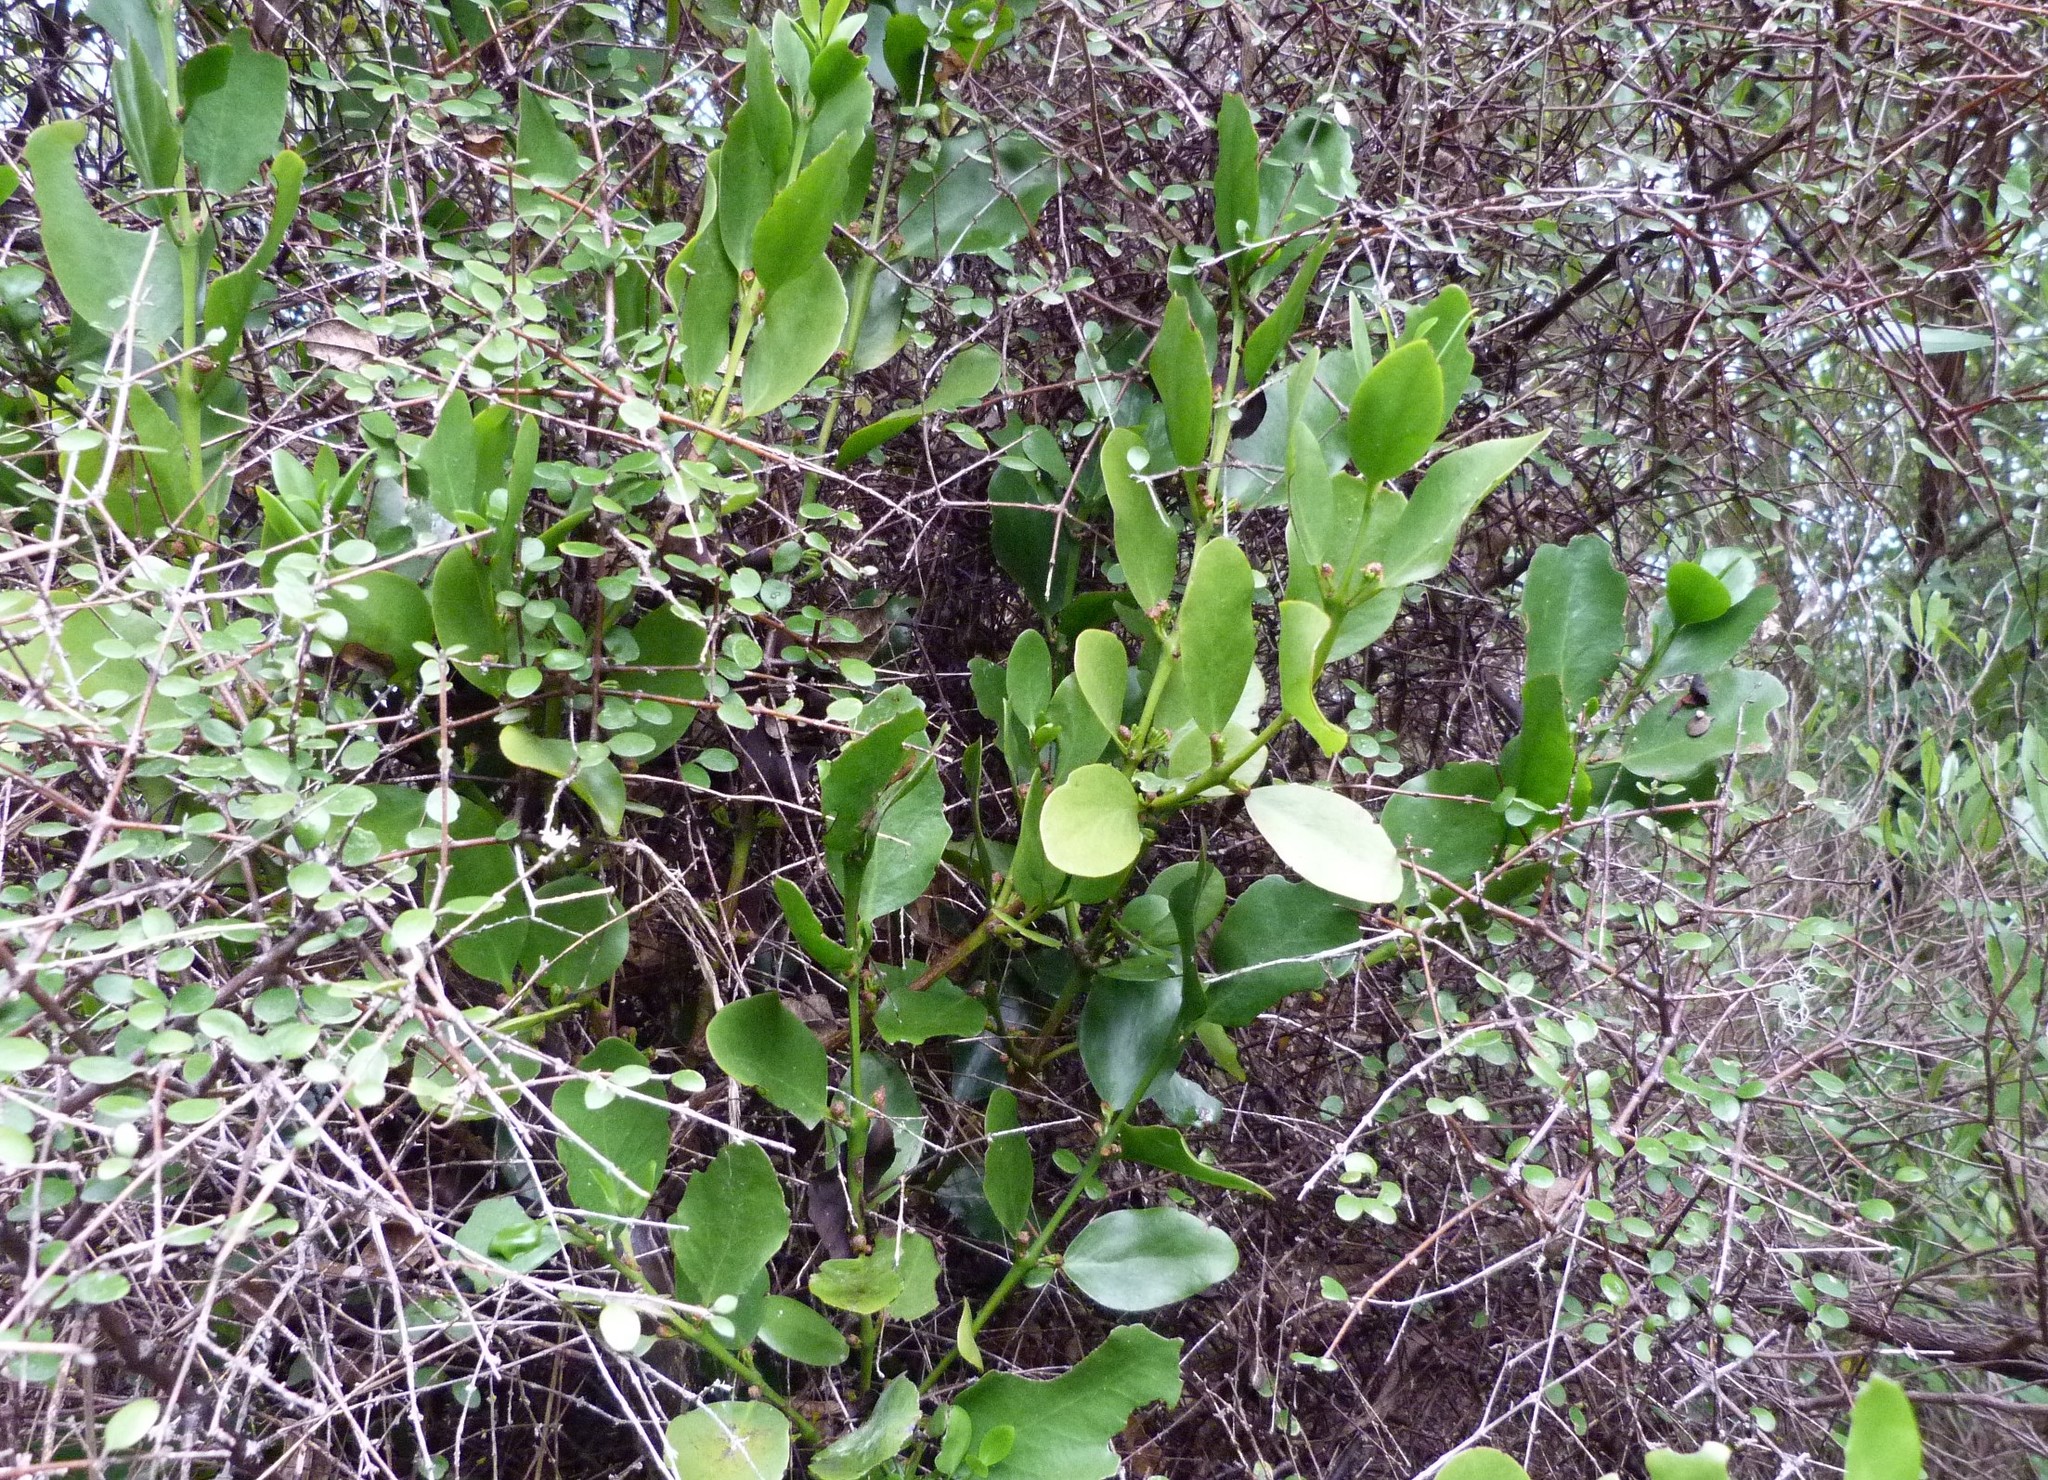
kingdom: Plantae
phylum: Tracheophyta
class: Magnoliopsida
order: Santalales
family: Loranthaceae
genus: Ileostylus
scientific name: Ileostylus micranthus
